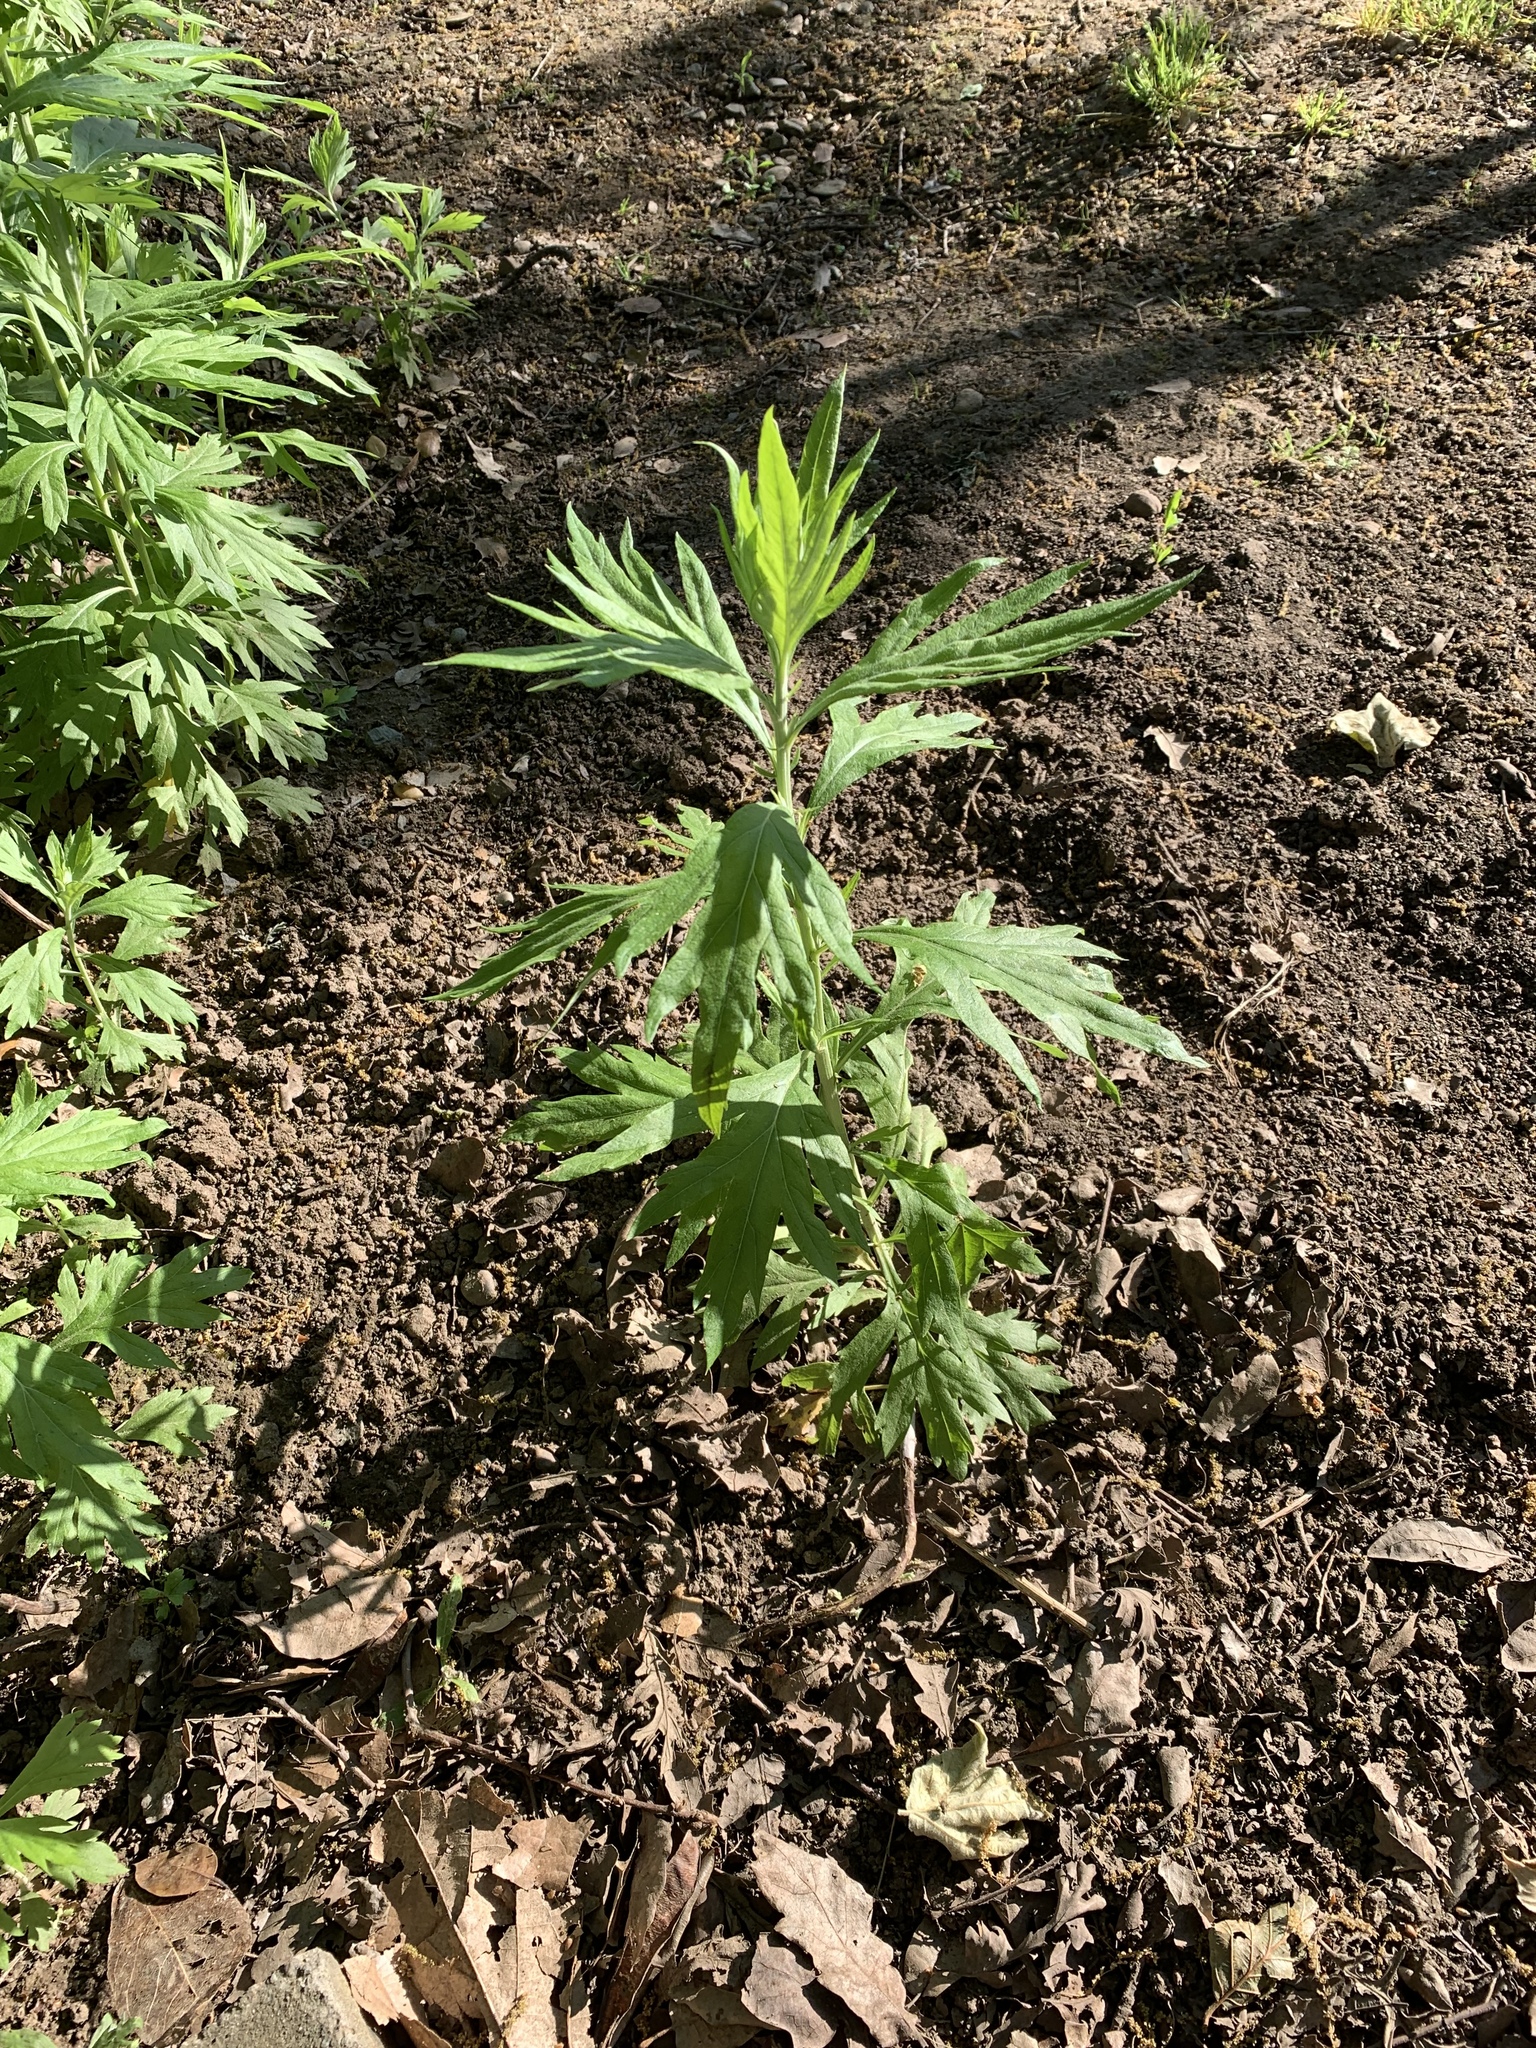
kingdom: Plantae
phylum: Tracheophyta
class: Magnoliopsida
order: Asterales
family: Asteraceae
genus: Artemisia
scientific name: Artemisia douglasiana
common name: Northwest mugwort
